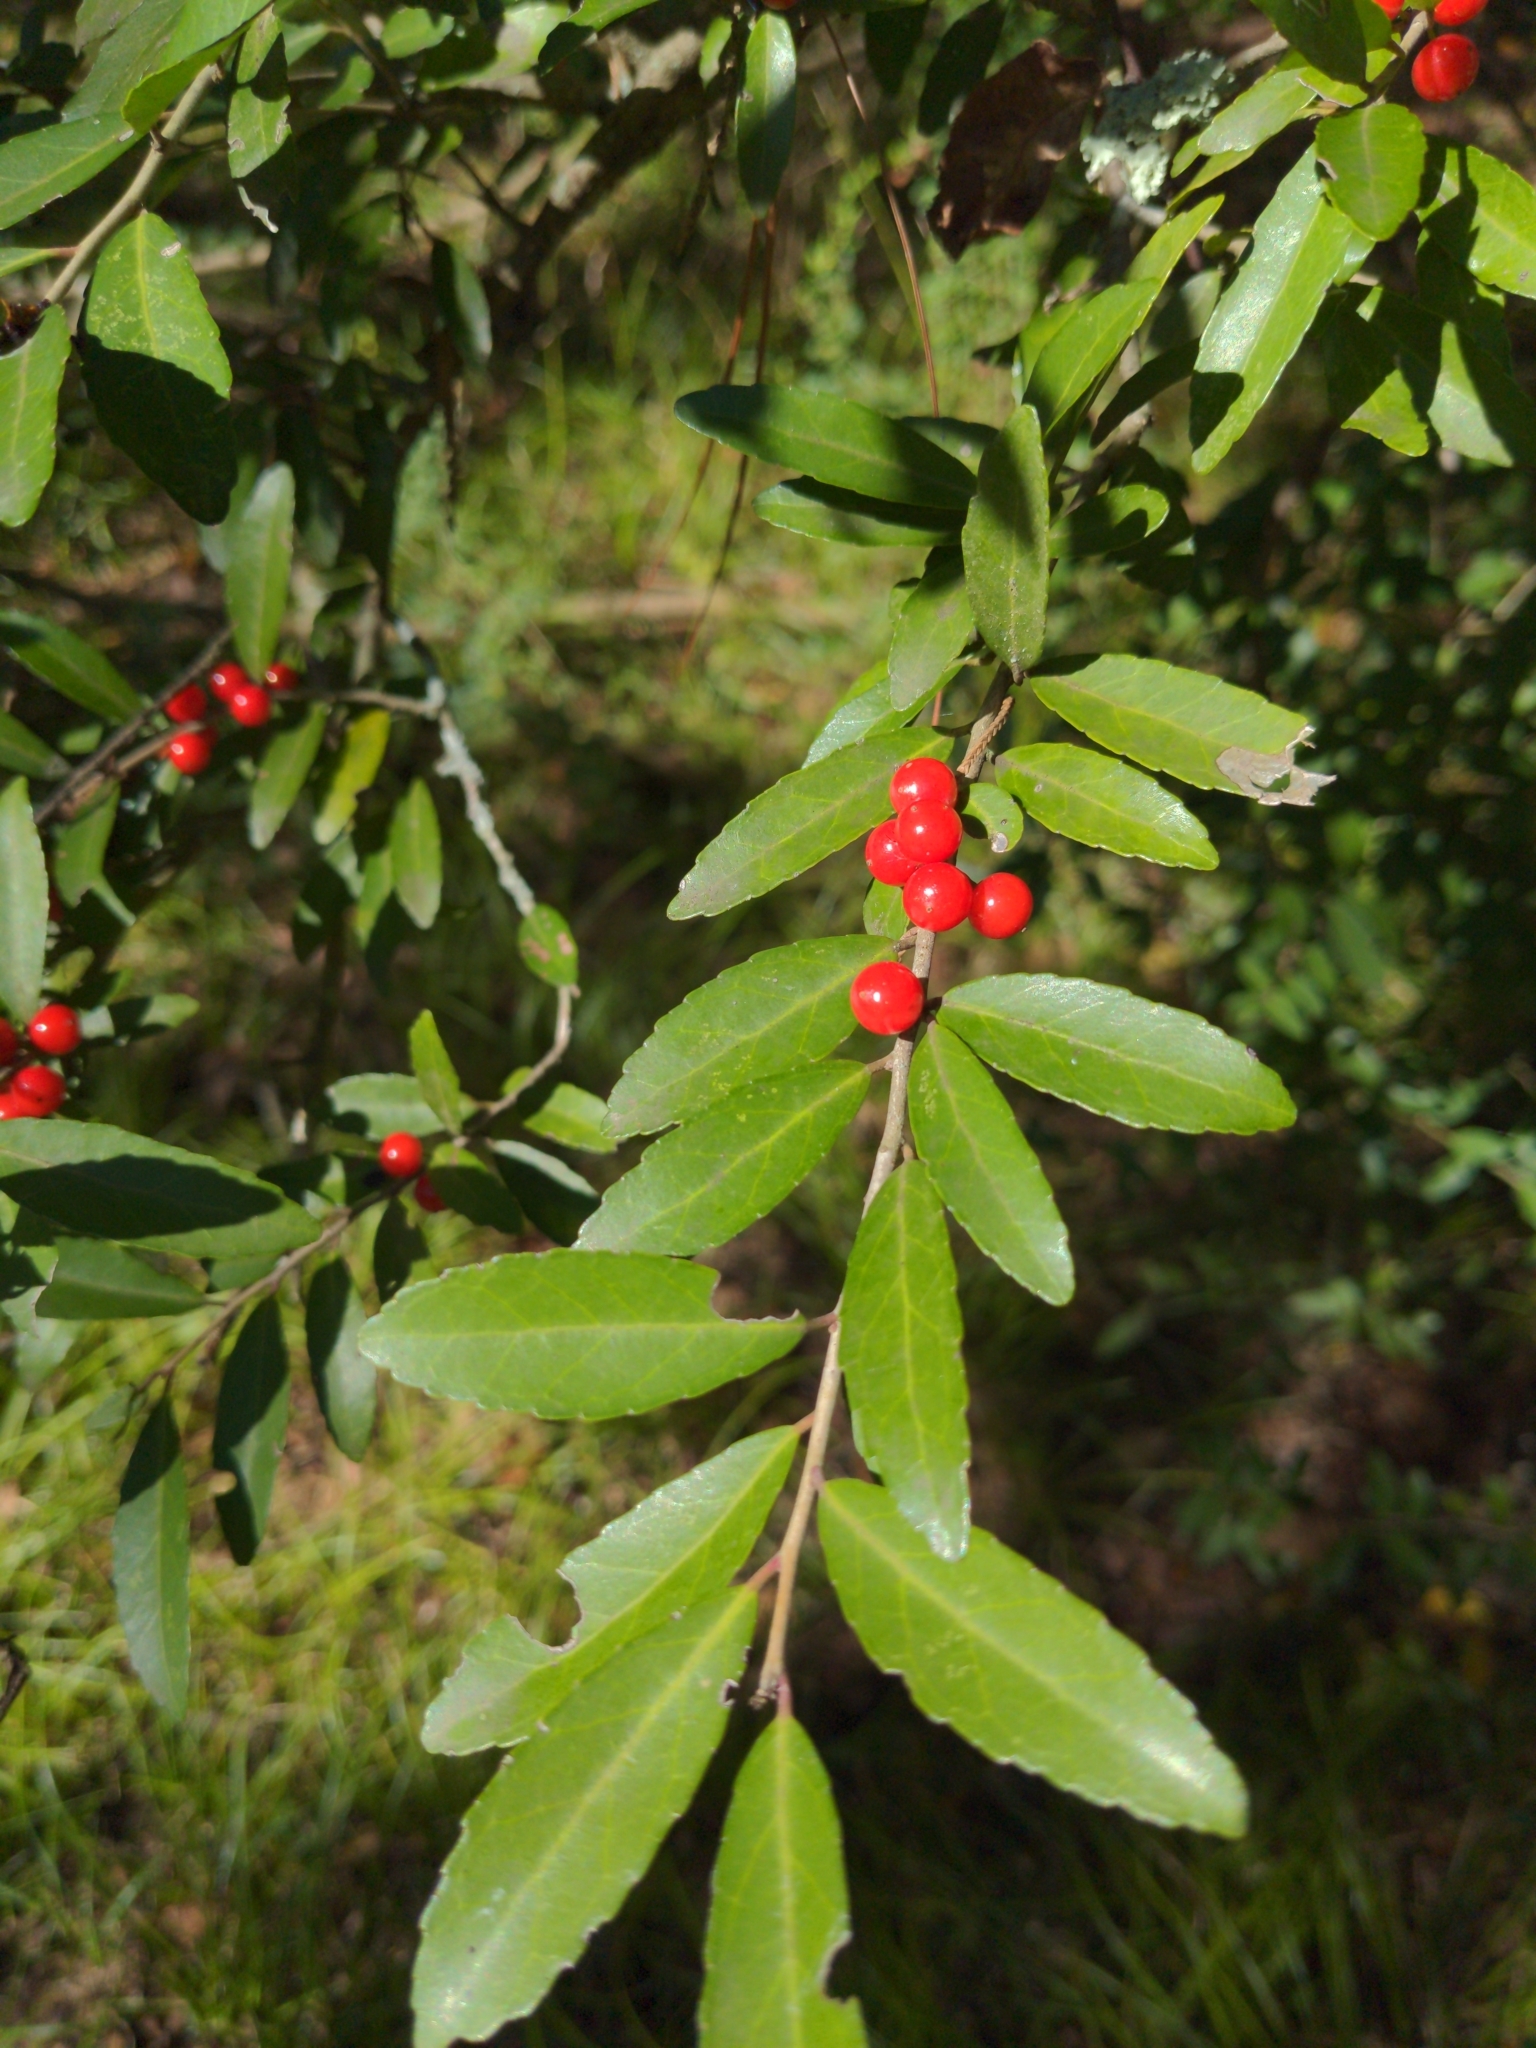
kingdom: Plantae
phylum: Tracheophyta
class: Magnoliopsida
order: Aquifoliales
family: Aquifoliaceae
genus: Ilex
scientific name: Ilex vomitoria
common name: Yaupon holly
